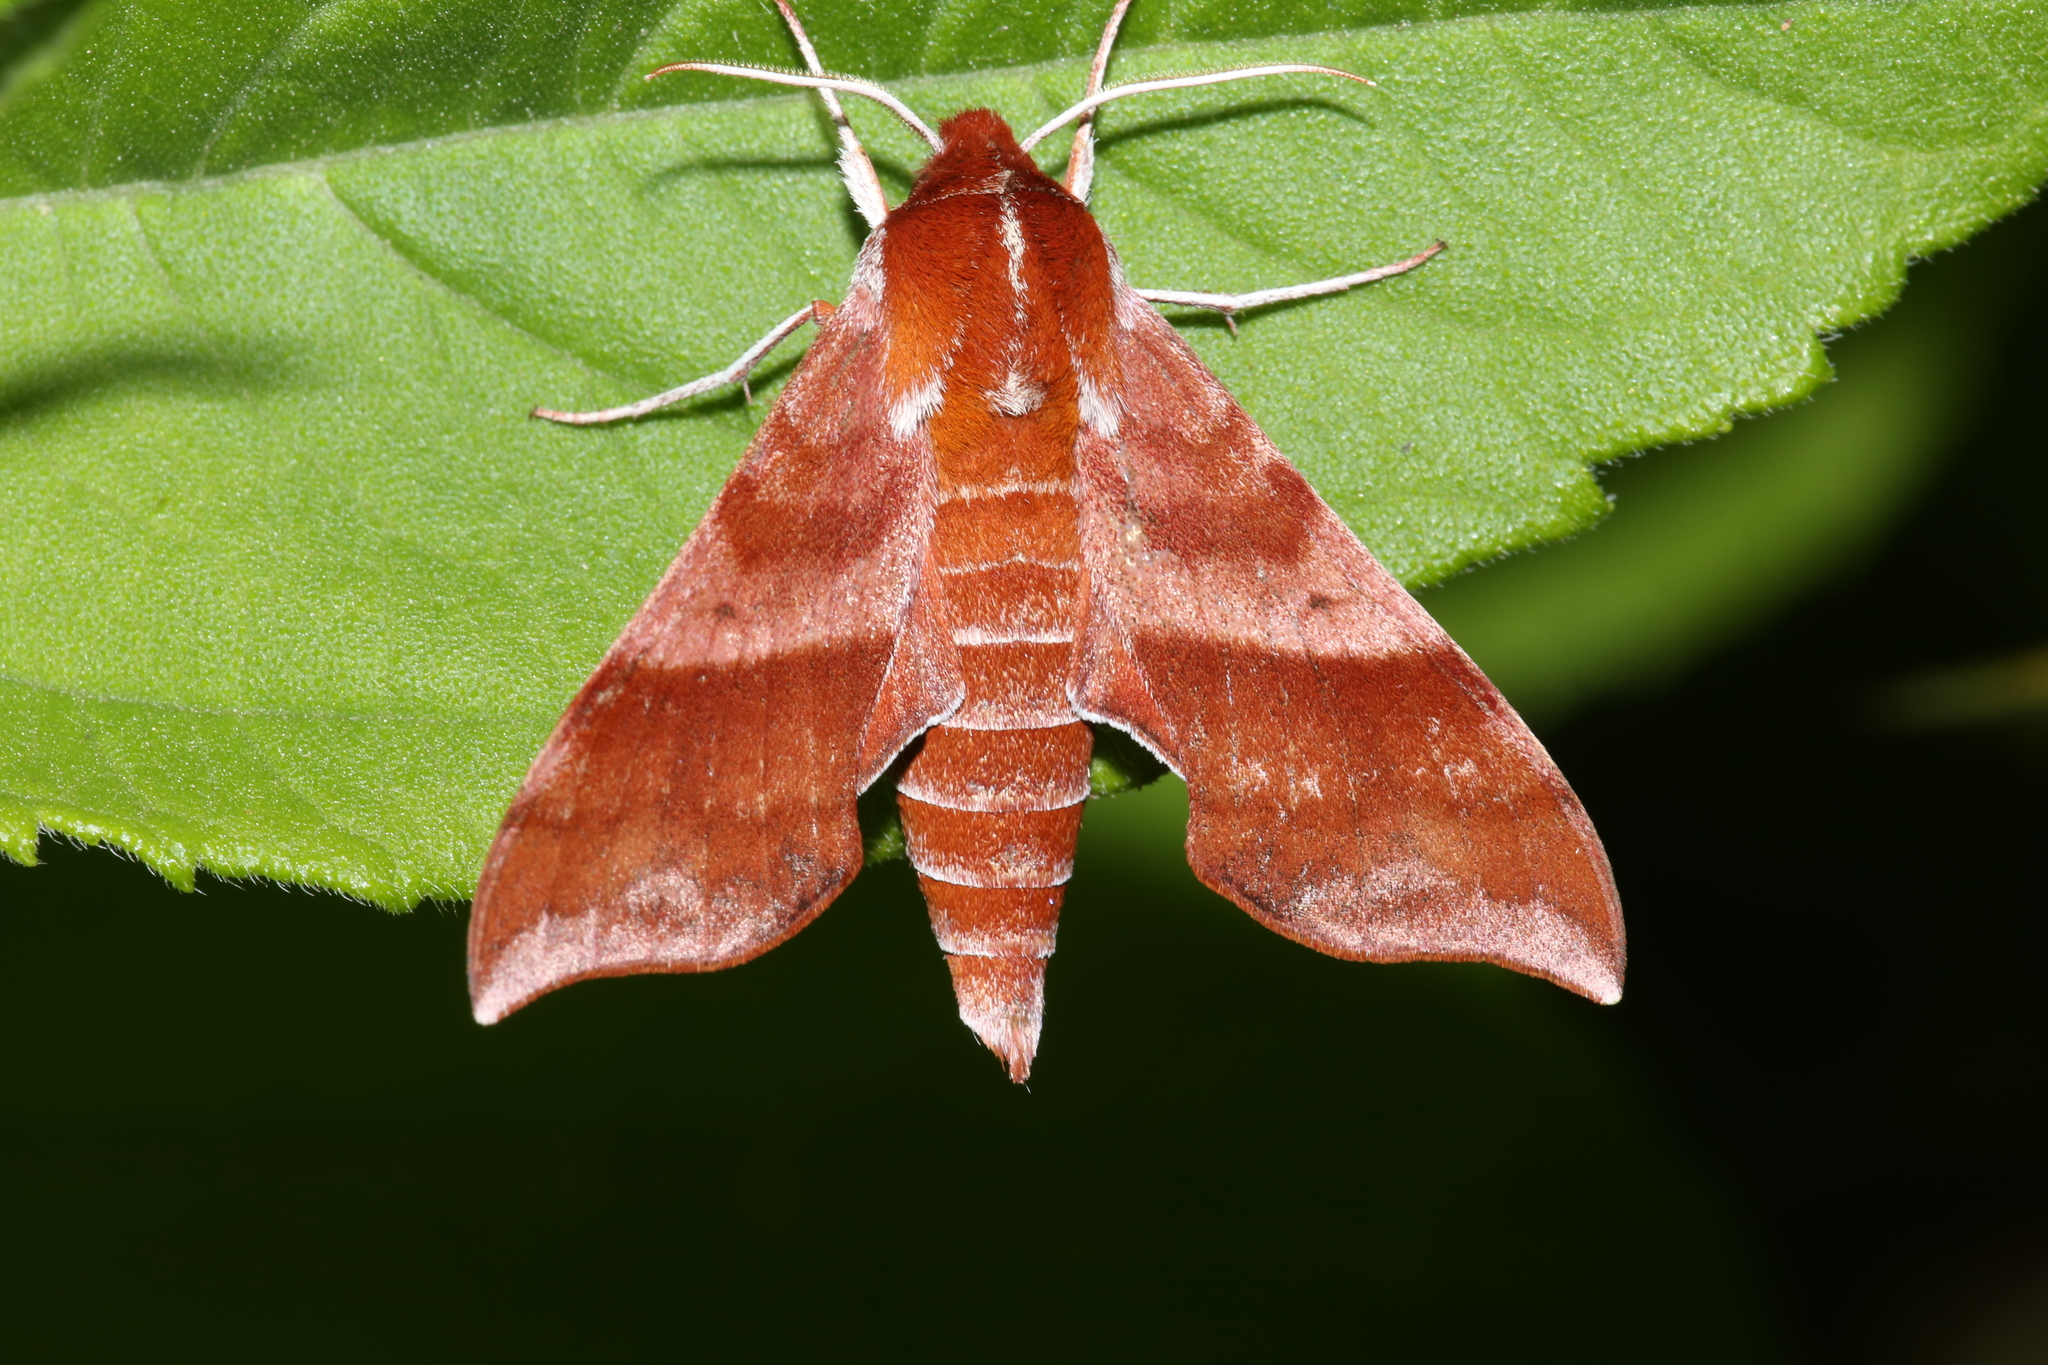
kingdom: Animalia
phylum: Arthropoda
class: Insecta
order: Lepidoptera
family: Sphingidae
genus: Darapsa
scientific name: Darapsa choerilus
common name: Azalea sphinx
